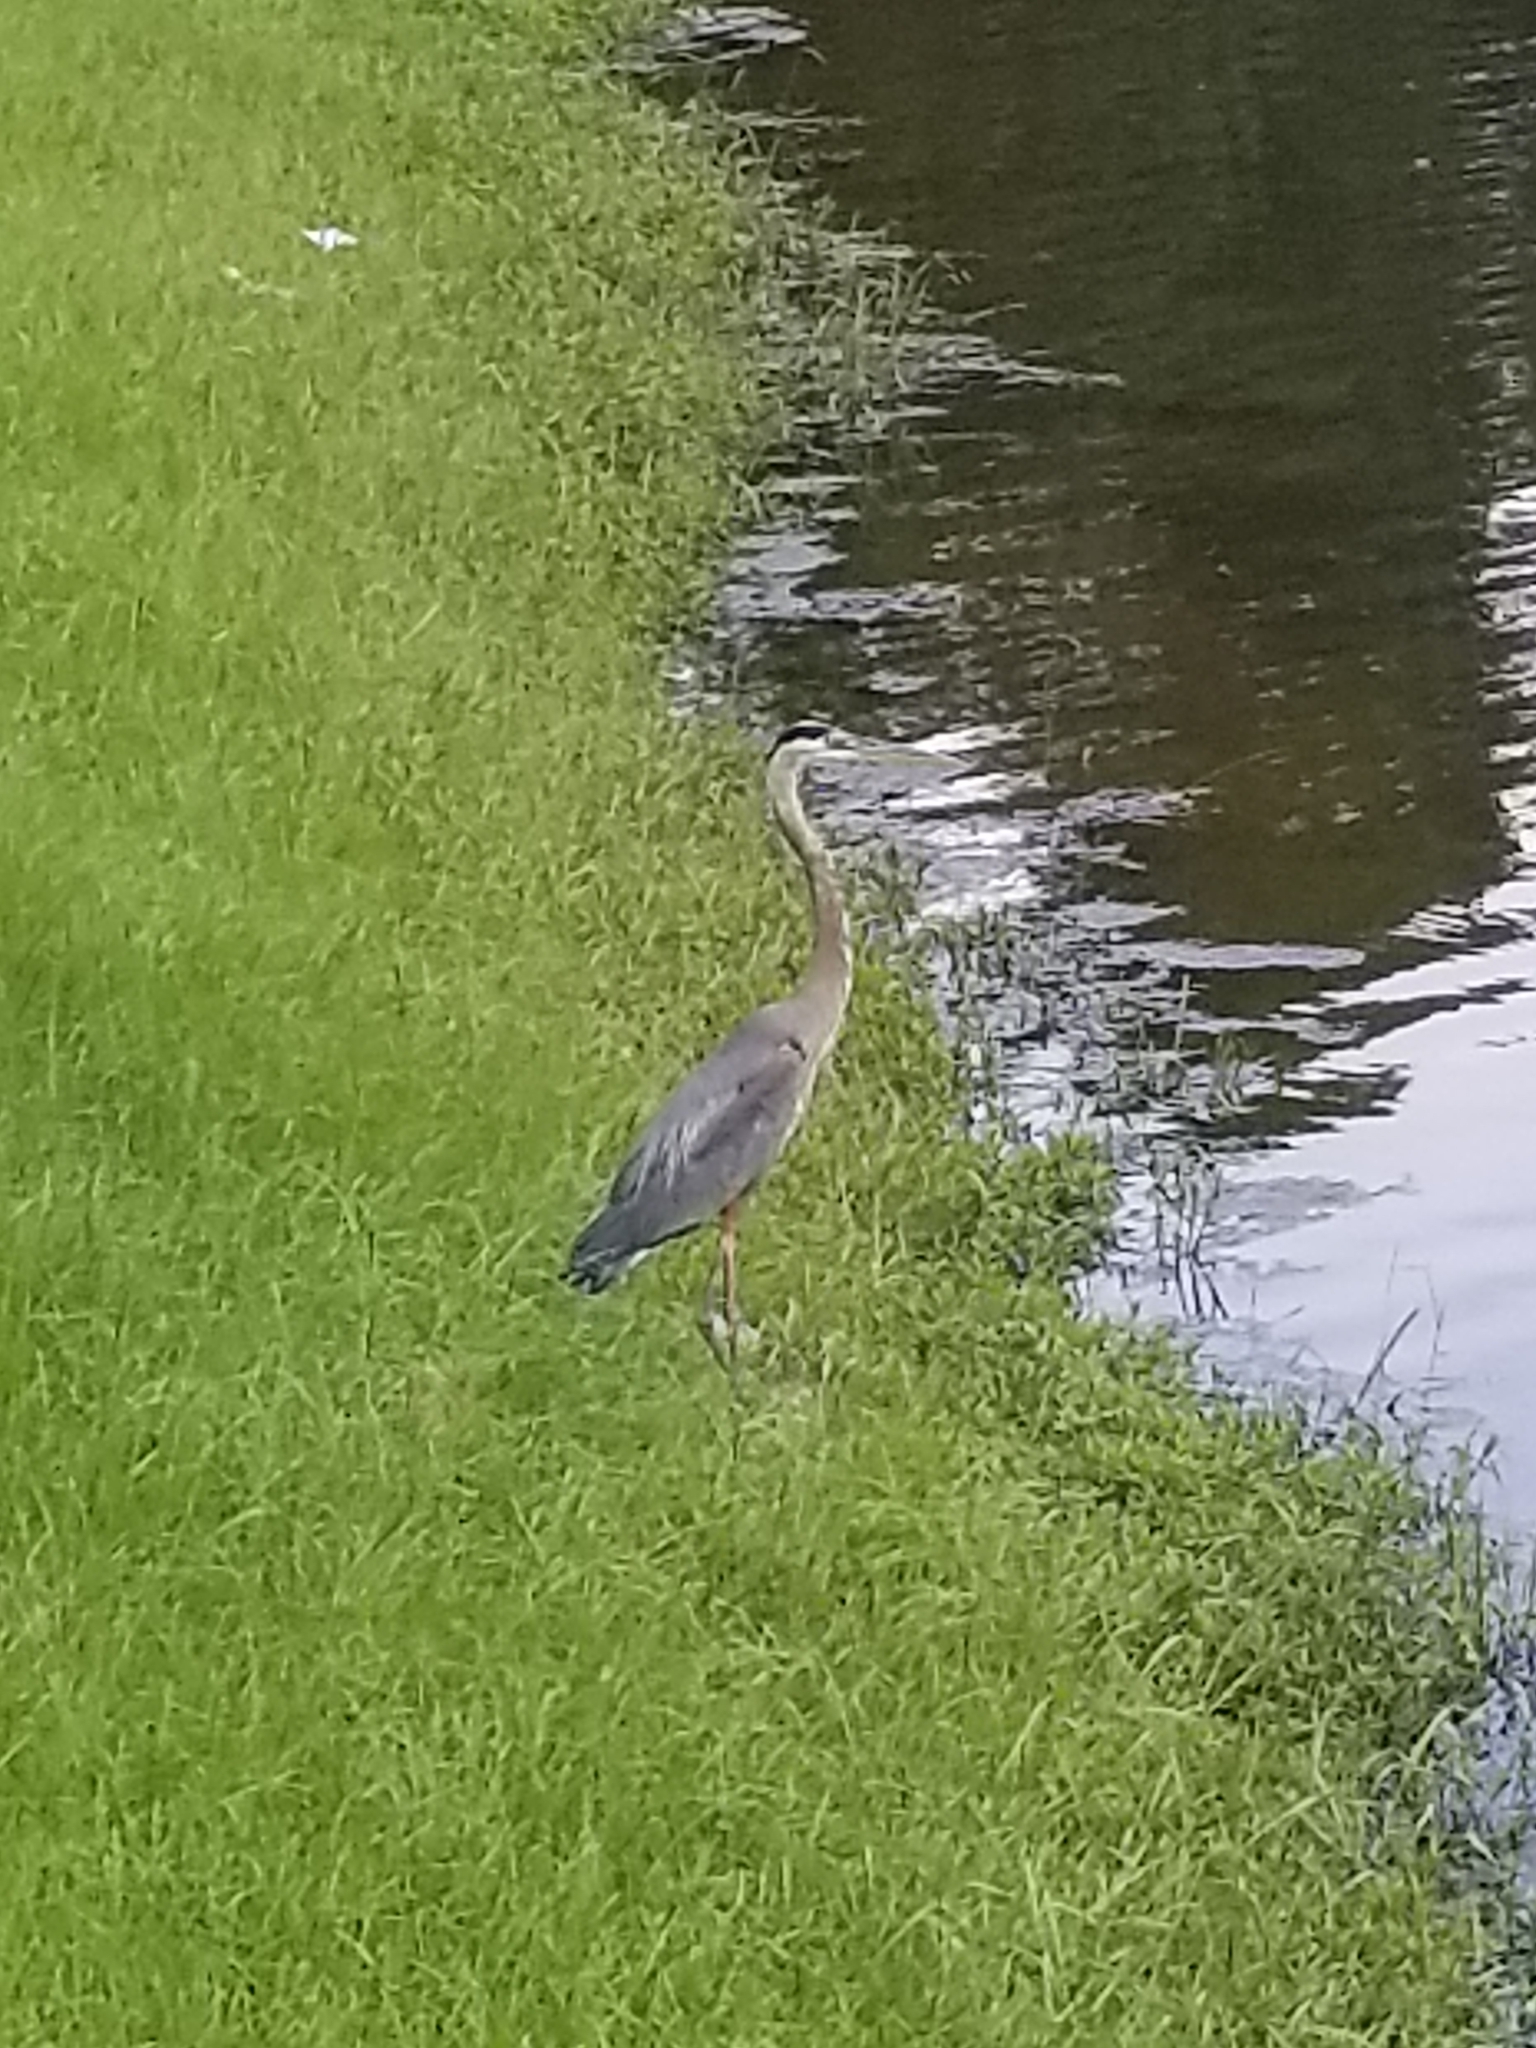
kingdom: Animalia
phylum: Chordata
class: Aves
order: Pelecaniformes
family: Ardeidae
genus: Ardea
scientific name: Ardea herodias
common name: Great blue heron
